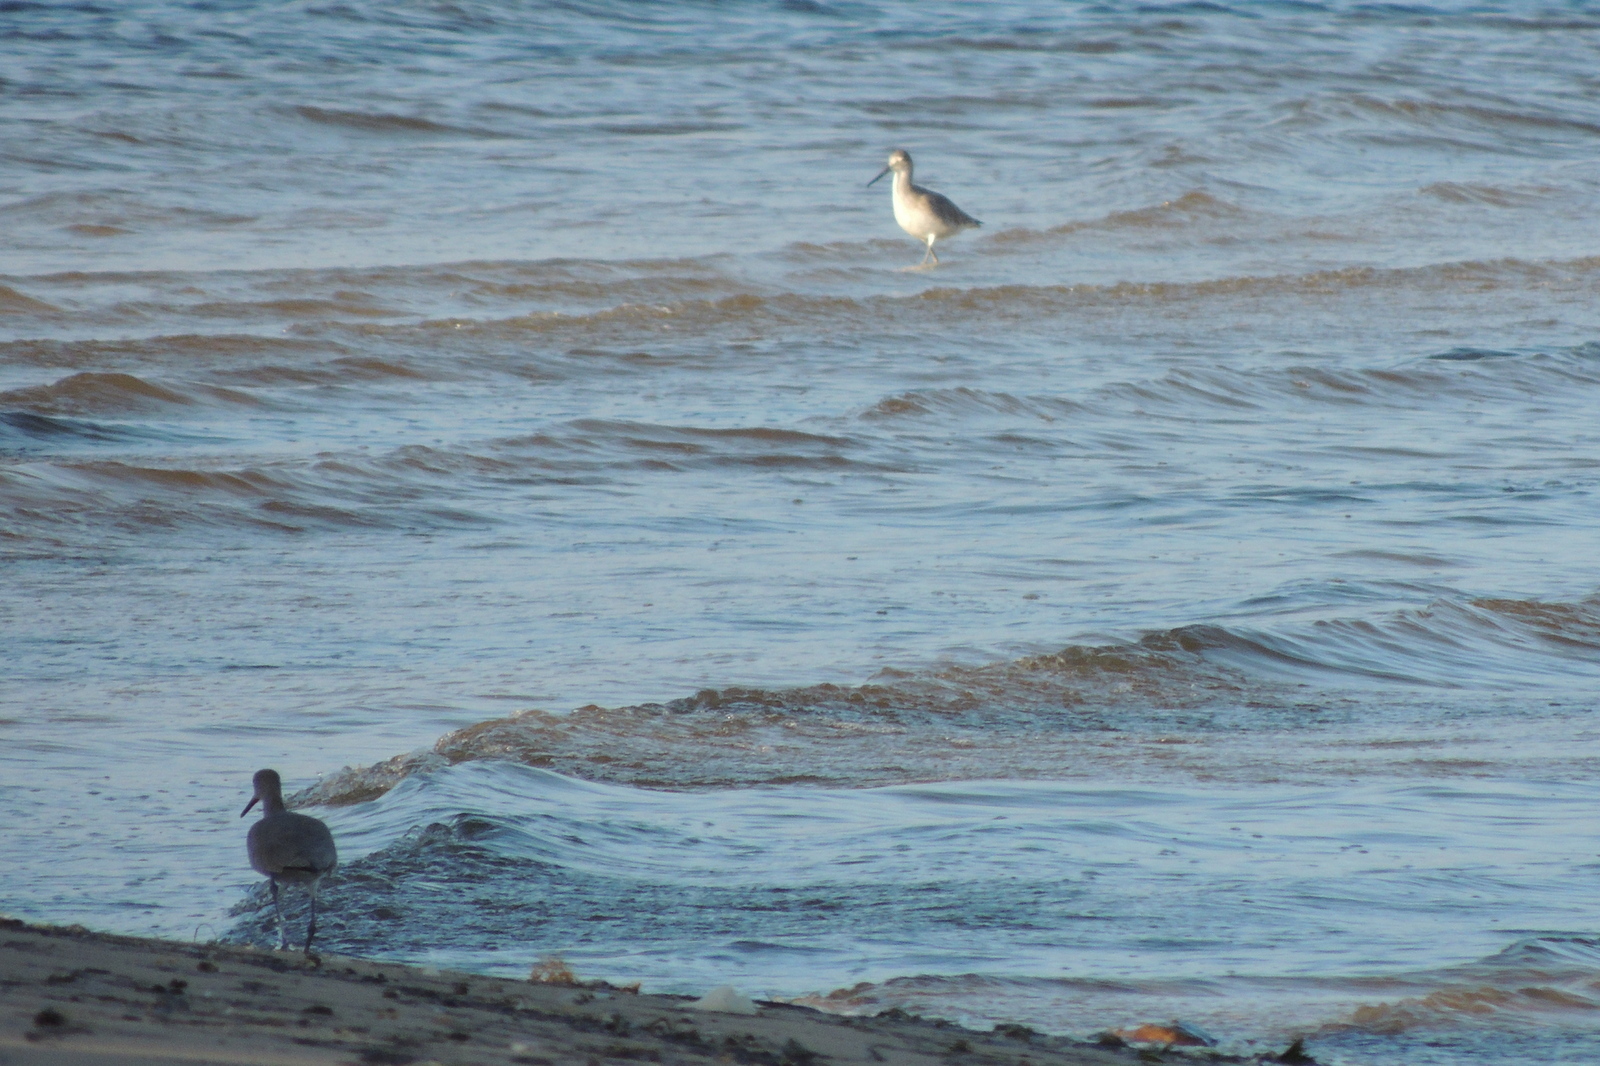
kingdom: Animalia
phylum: Chordata
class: Aves
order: Charadriiformes
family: Scolopacidae
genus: Tringa
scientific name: Tringa semipalmata
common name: Willet
